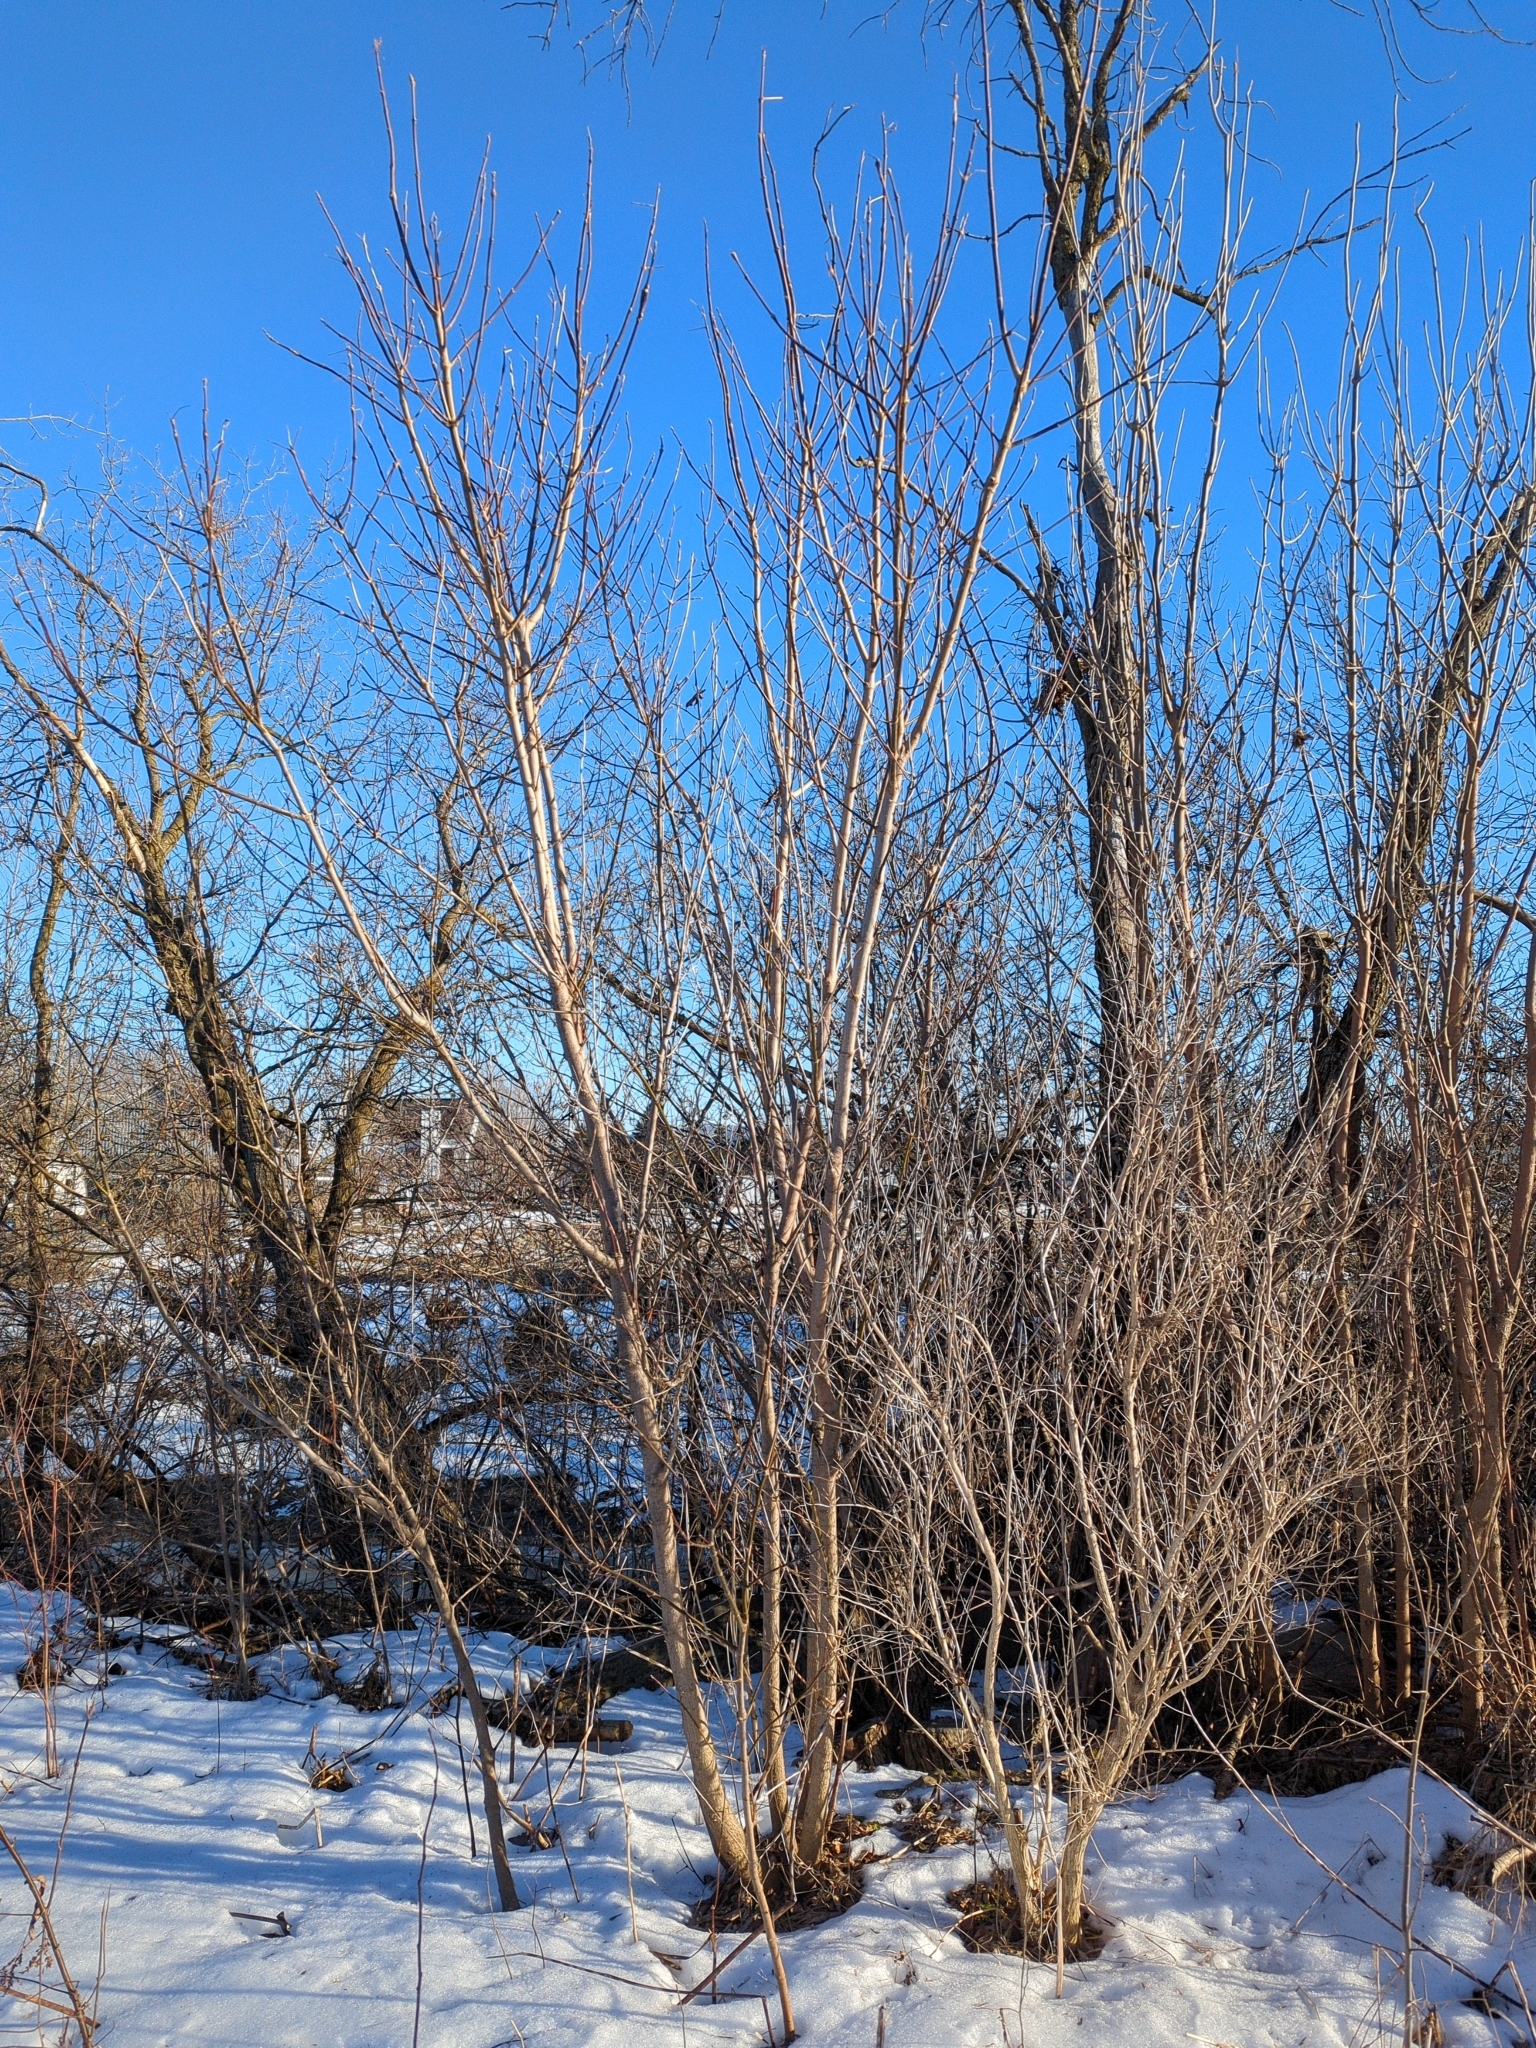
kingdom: Plantae
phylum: Tracheophyta
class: Magnoliopsida
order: Sapindales
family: Sapindaceae
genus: Acer
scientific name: Acer negundo
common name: Ashleaf maple
